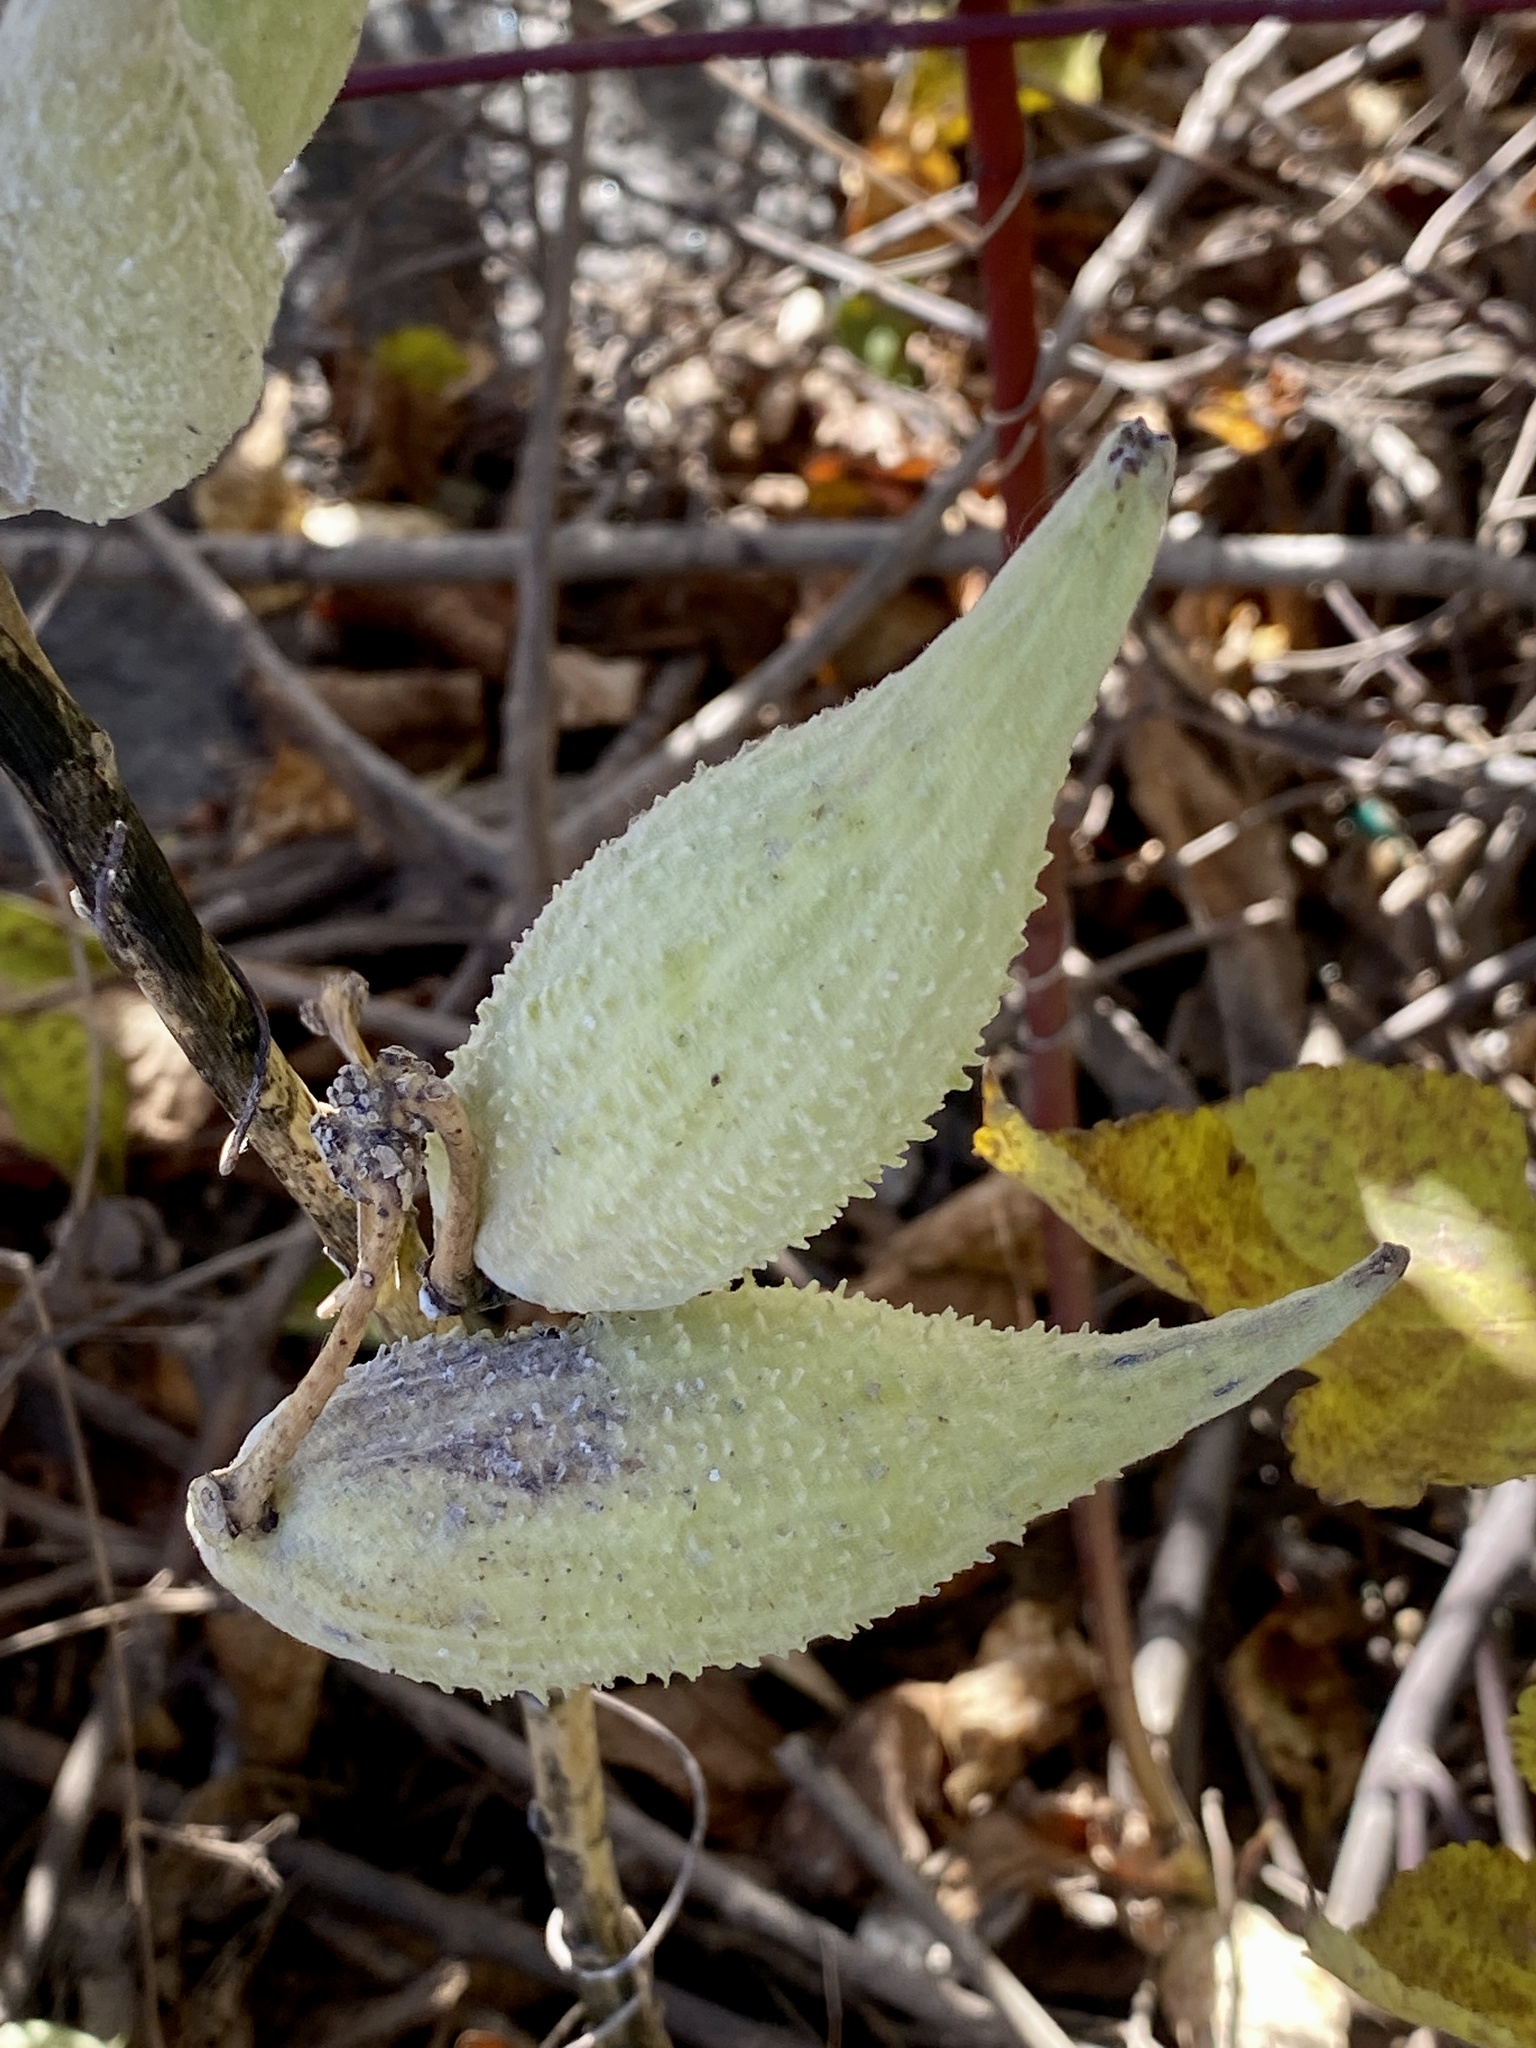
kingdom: Plantae
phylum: Tracheophyta
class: Magnoliopsida
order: Gentianales
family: Apocynaceae
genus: Asclepias
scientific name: Asclepias syriaca
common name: Common milkweed
